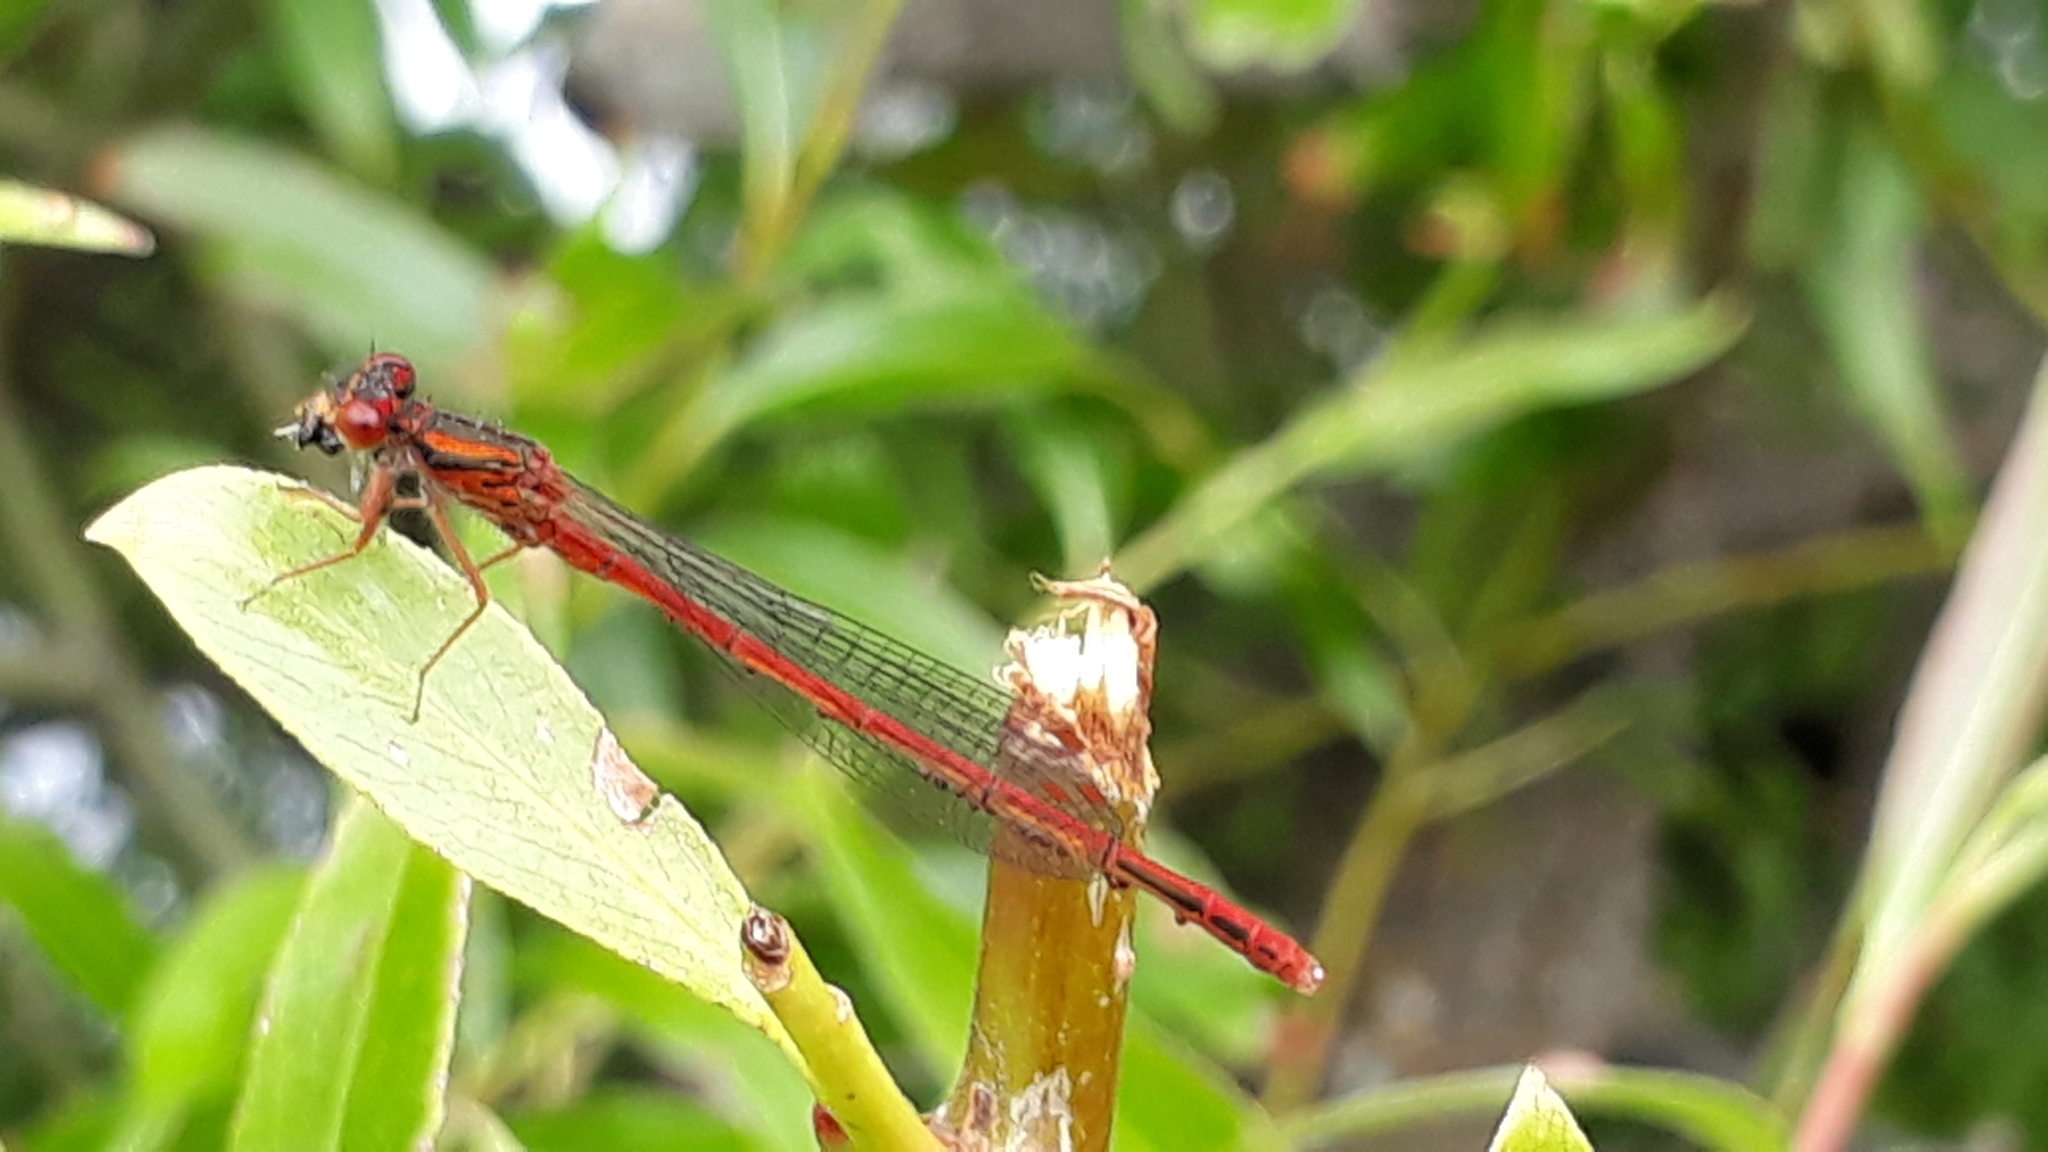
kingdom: Animalia
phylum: Arthropoda
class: Insecta
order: Odonata
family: Coenagrionidae
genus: Xanthocnemis
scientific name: Xanthocnemis zealandica
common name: Common redcoat damselfly
